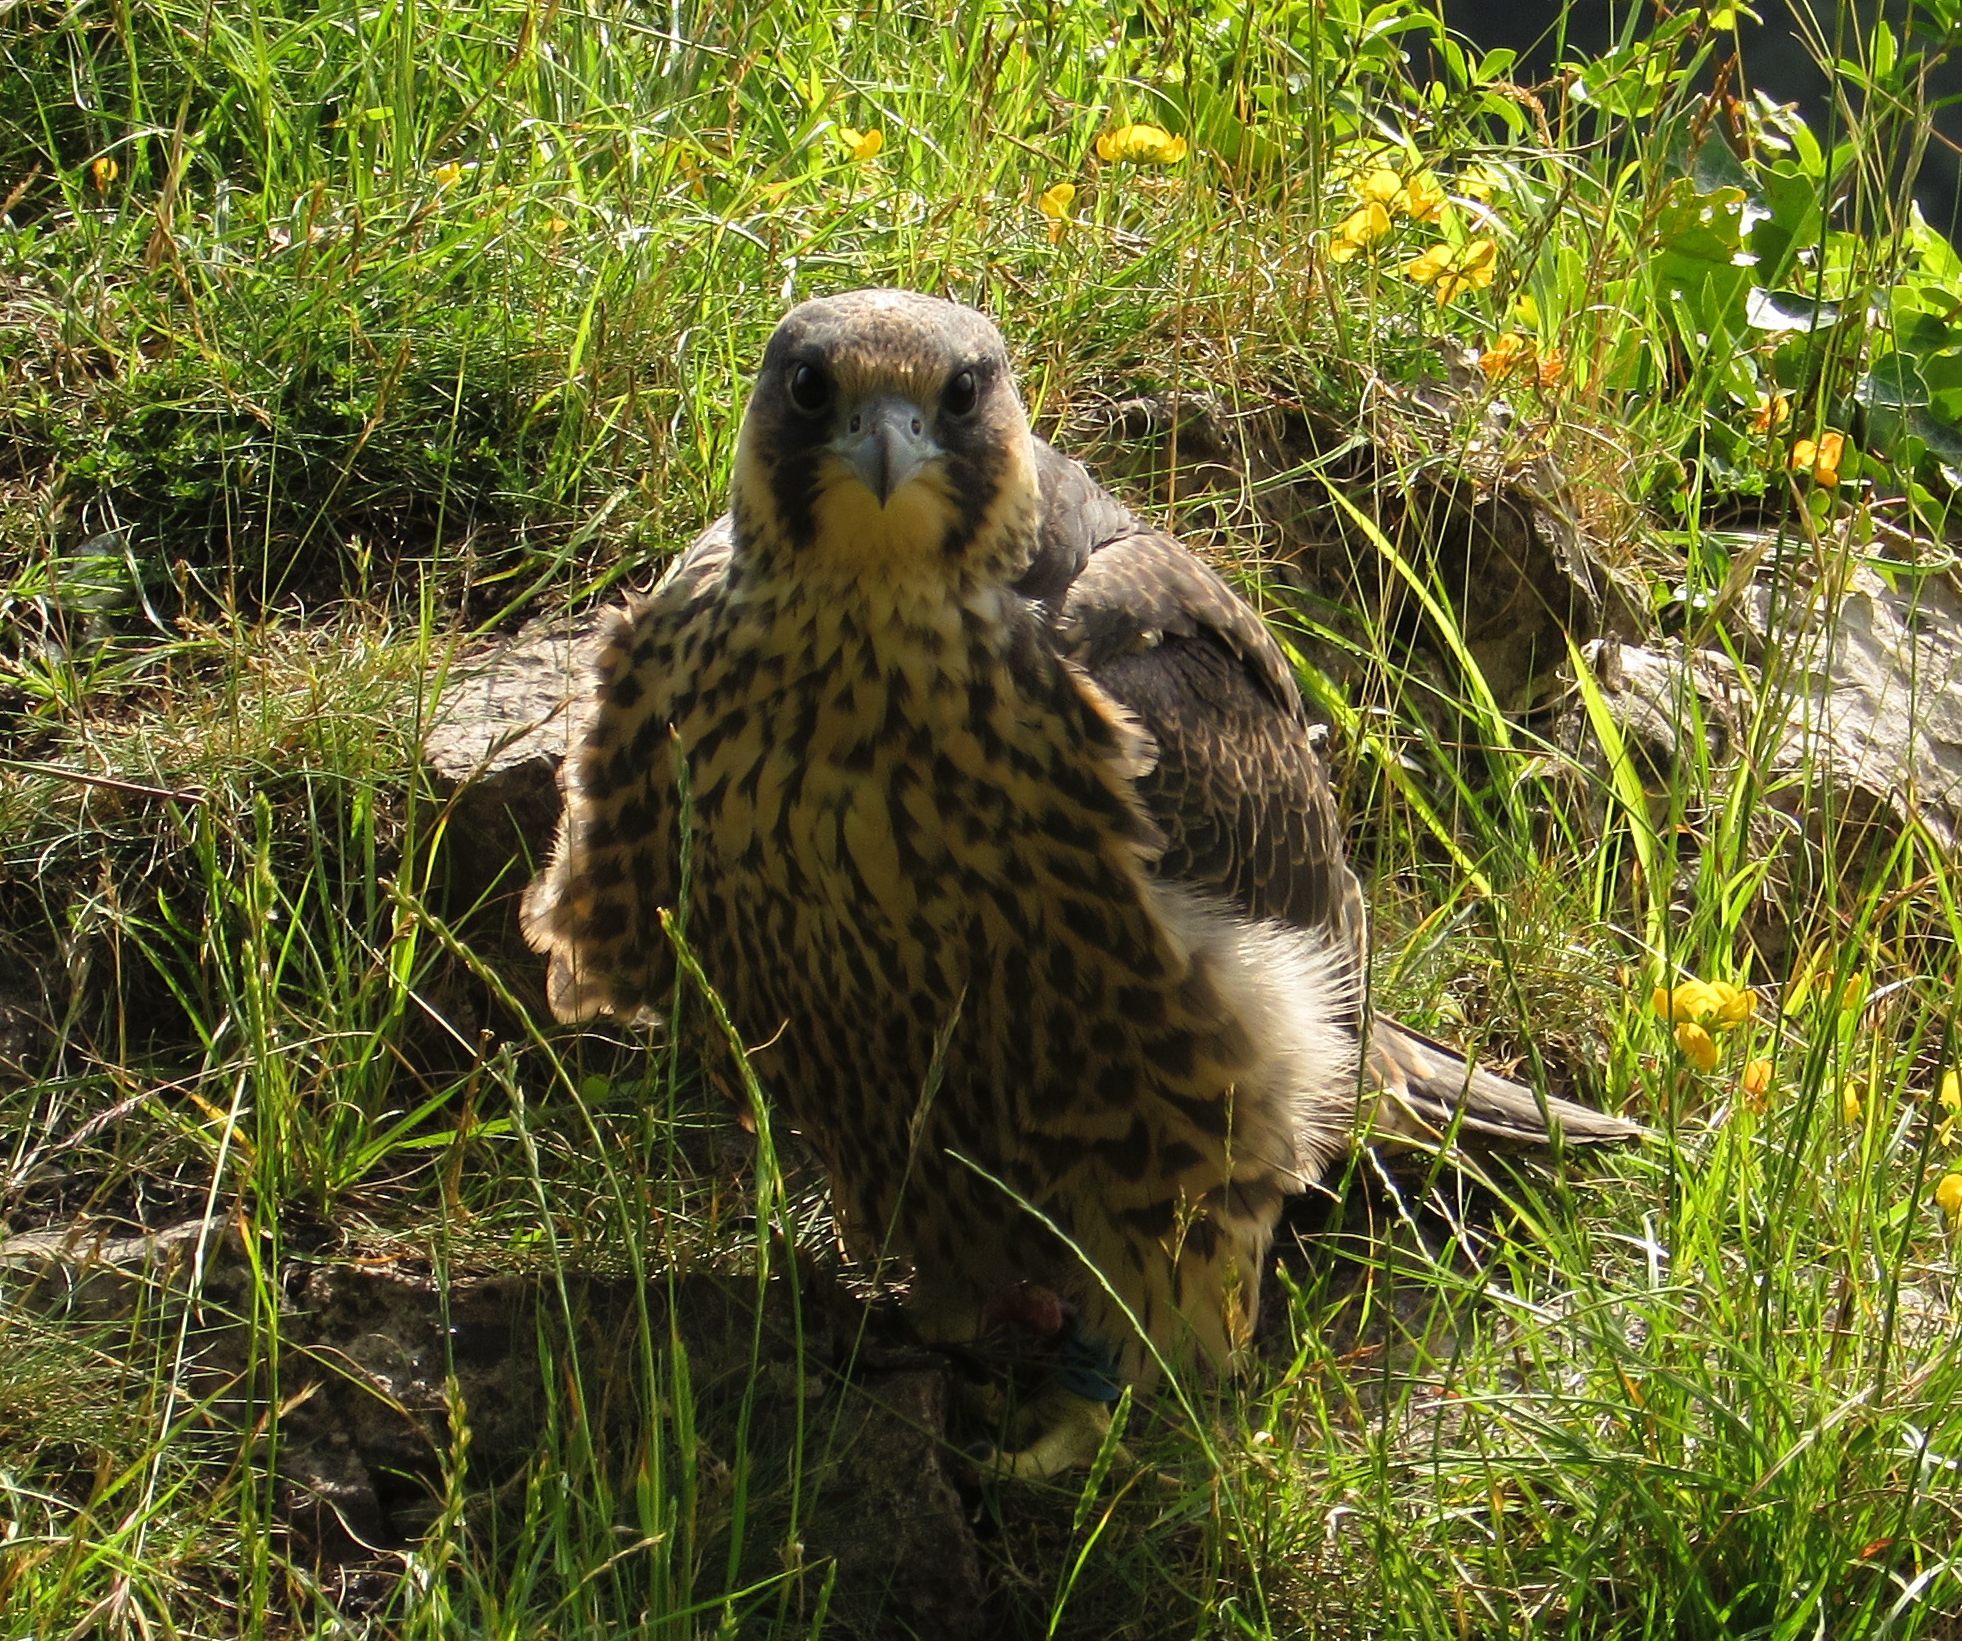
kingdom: Animalia
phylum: Chordata
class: Aves
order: Falconiformes
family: Falconidae
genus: Falco
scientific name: Falco peregrinus
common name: Peregrine falcon
